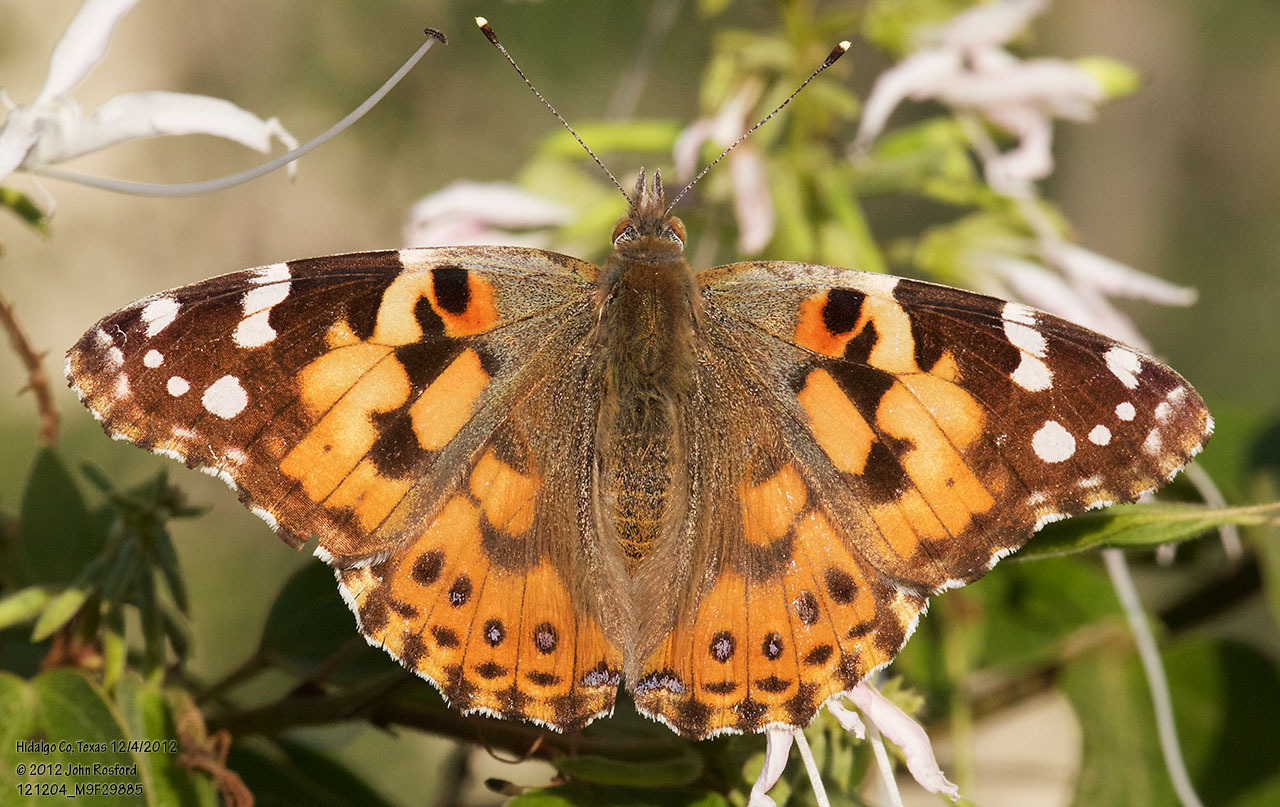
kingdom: Animalia
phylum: Arthropoda
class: Insecta
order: Lepidoptera
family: Nymphalidae
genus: Vanessa
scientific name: Vanessa cardui
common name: Painted lady
